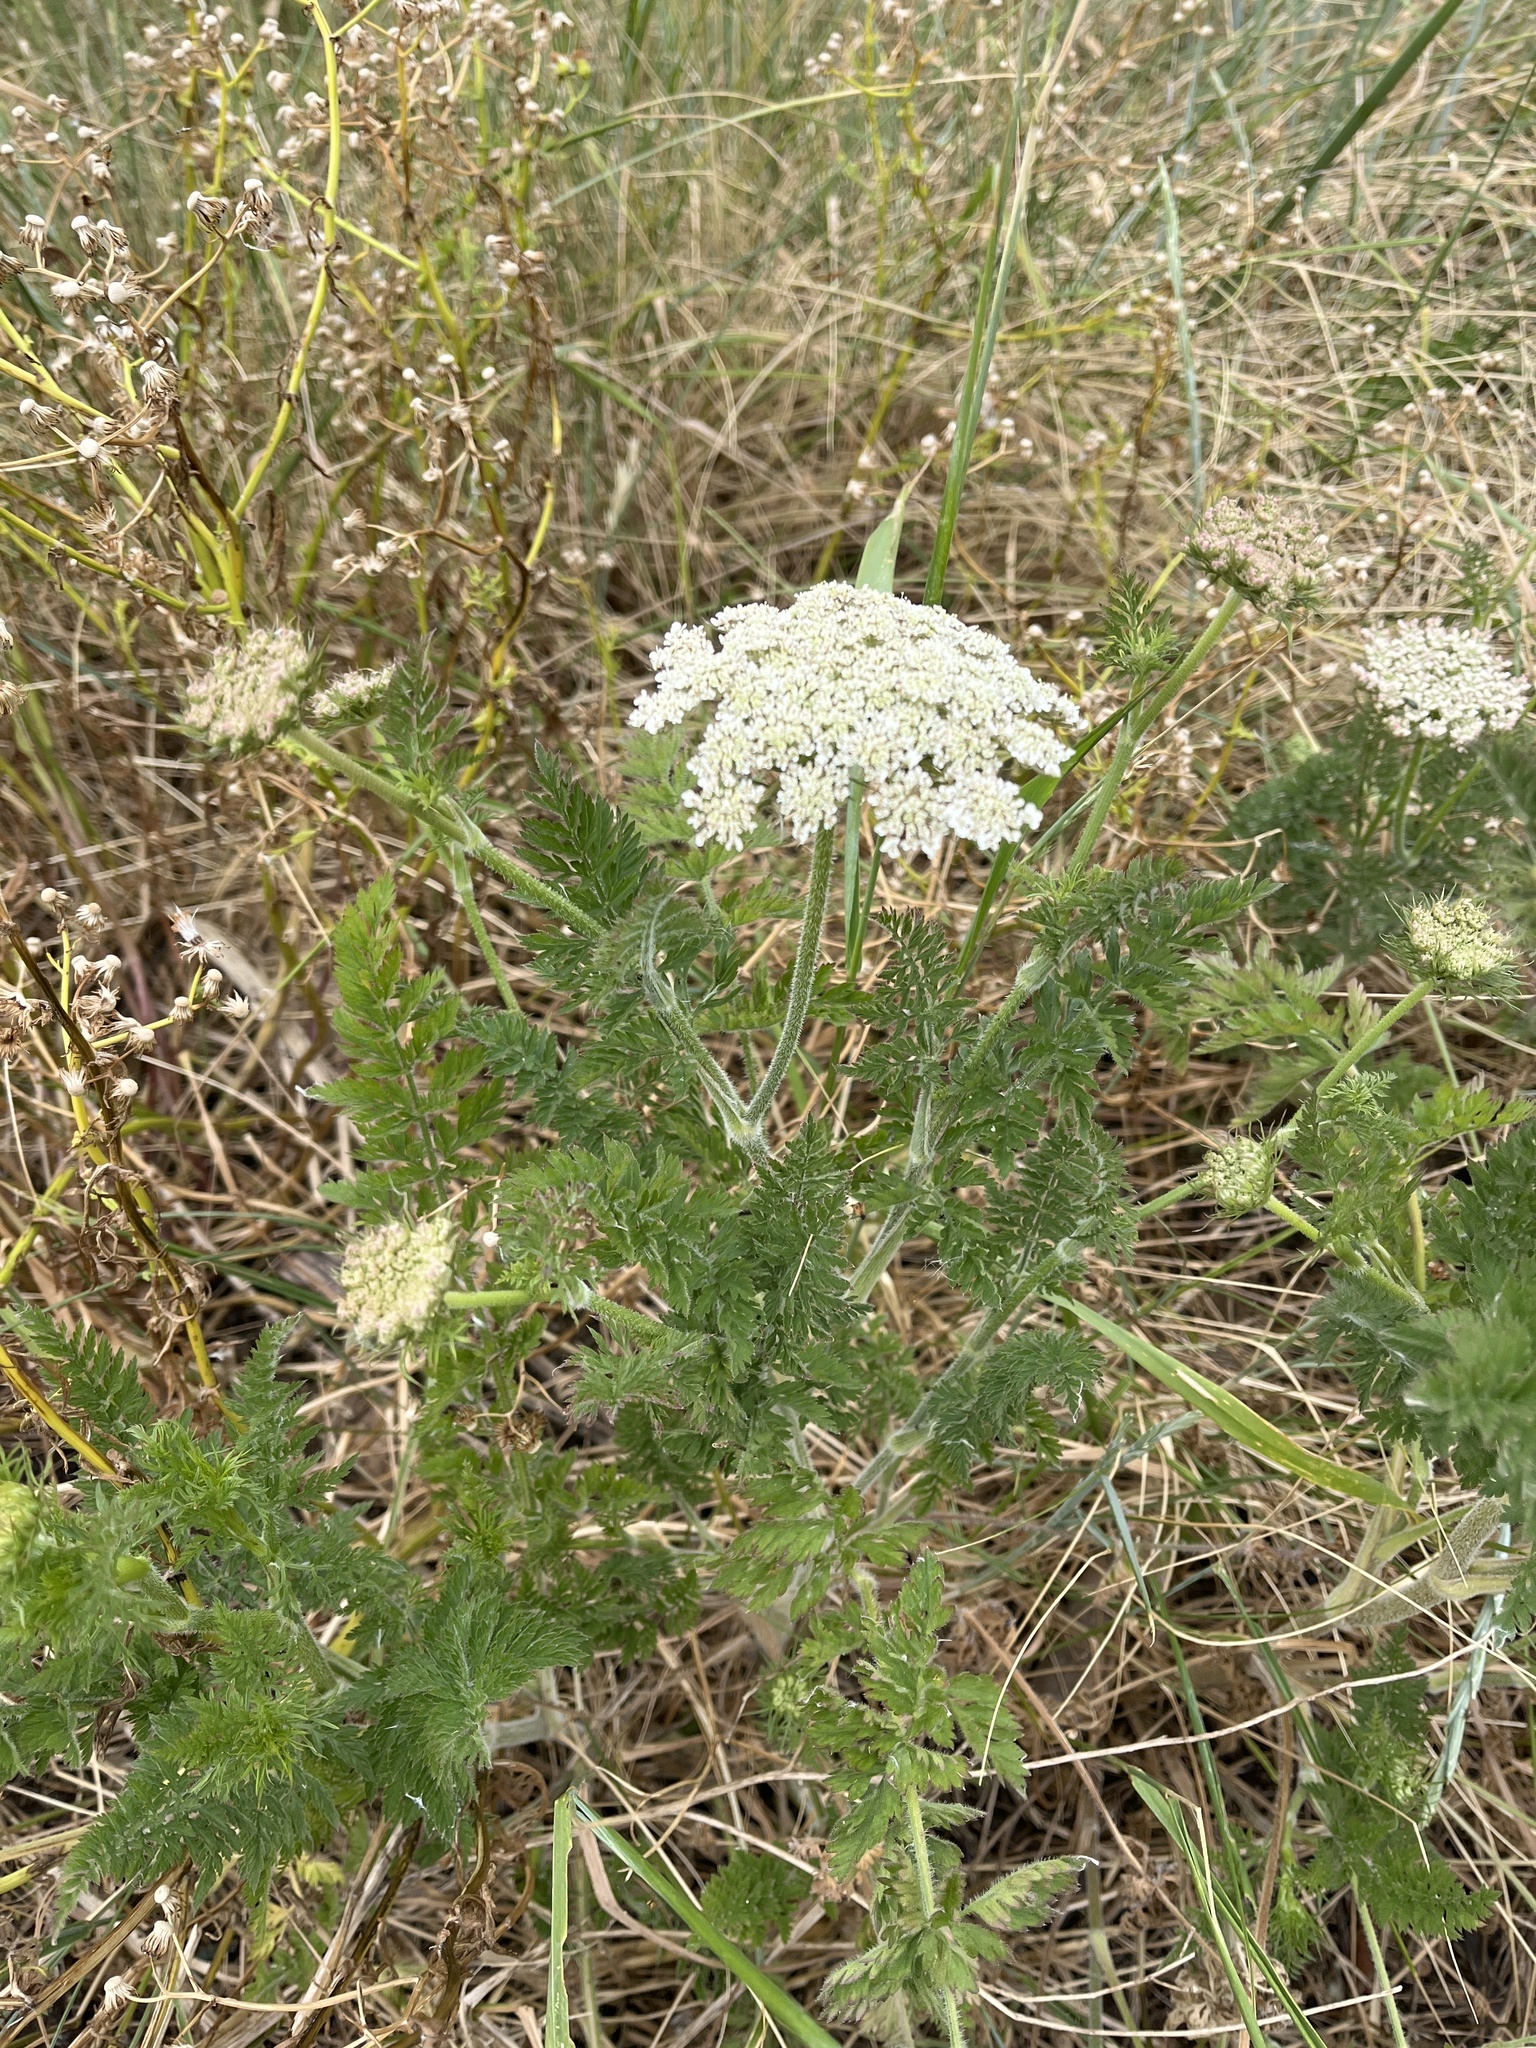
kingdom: Plantae
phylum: Tracheophyta
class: Magnoliopsida
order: Apiales
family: Apiaceae
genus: Daucus
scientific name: Daucus carota
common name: Wild carrot
